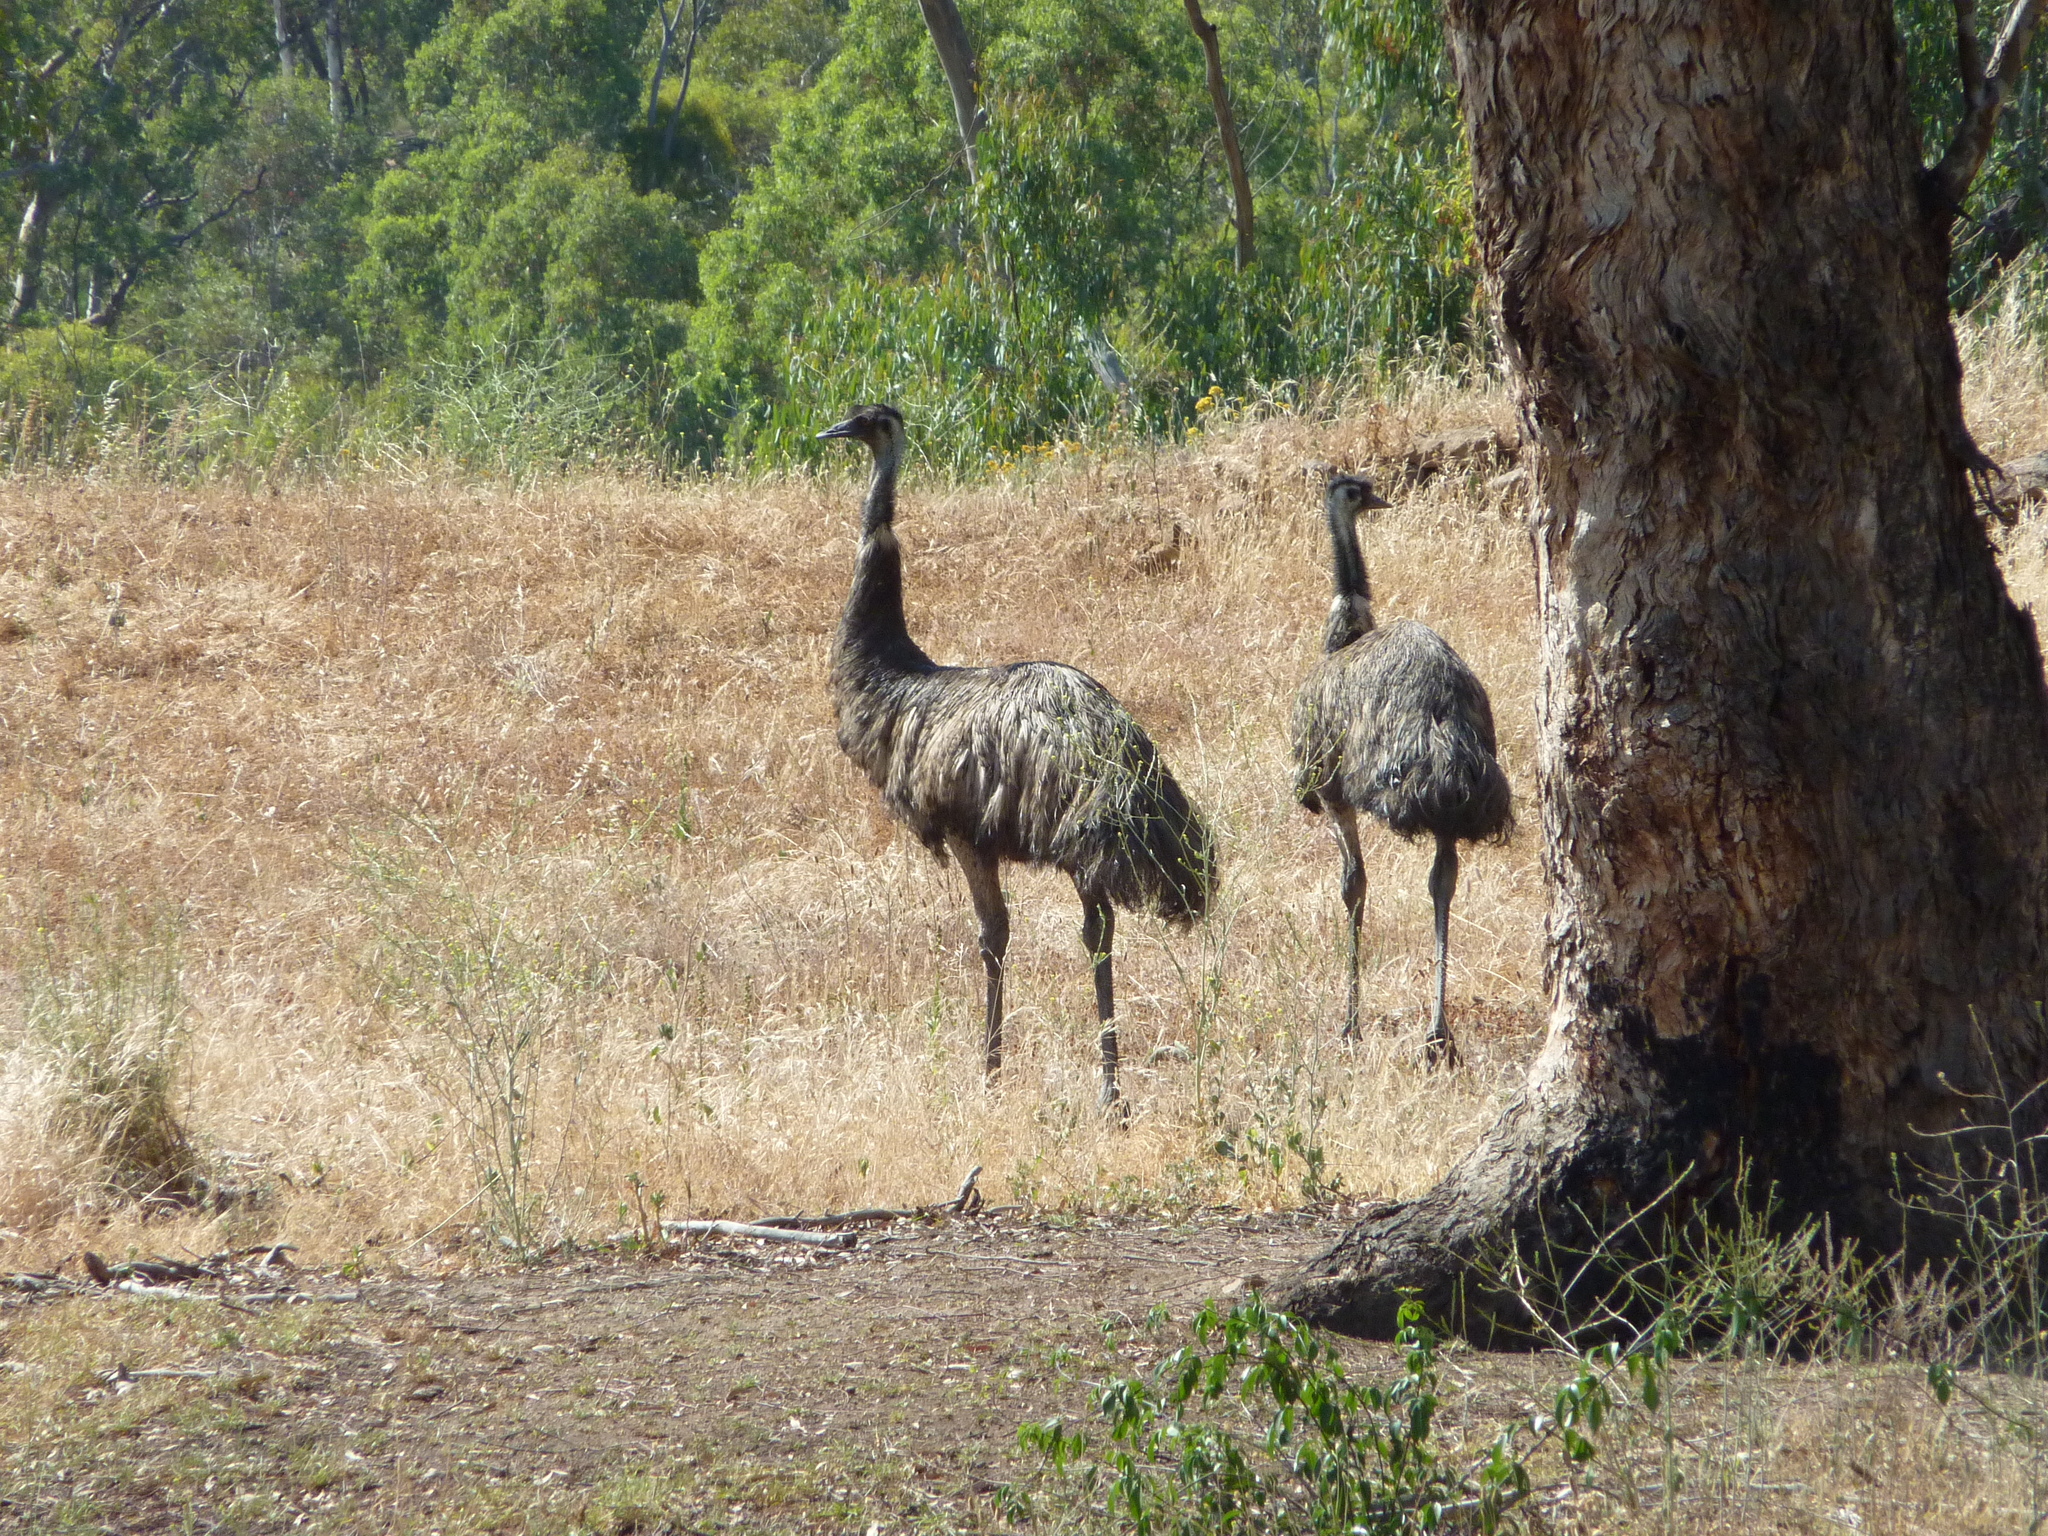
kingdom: Animalia
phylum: Chordata
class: Aves
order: Casuariiformes
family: Dromaiidae
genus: Dromaius
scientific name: Dromaius novaehollandiae
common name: Emu
